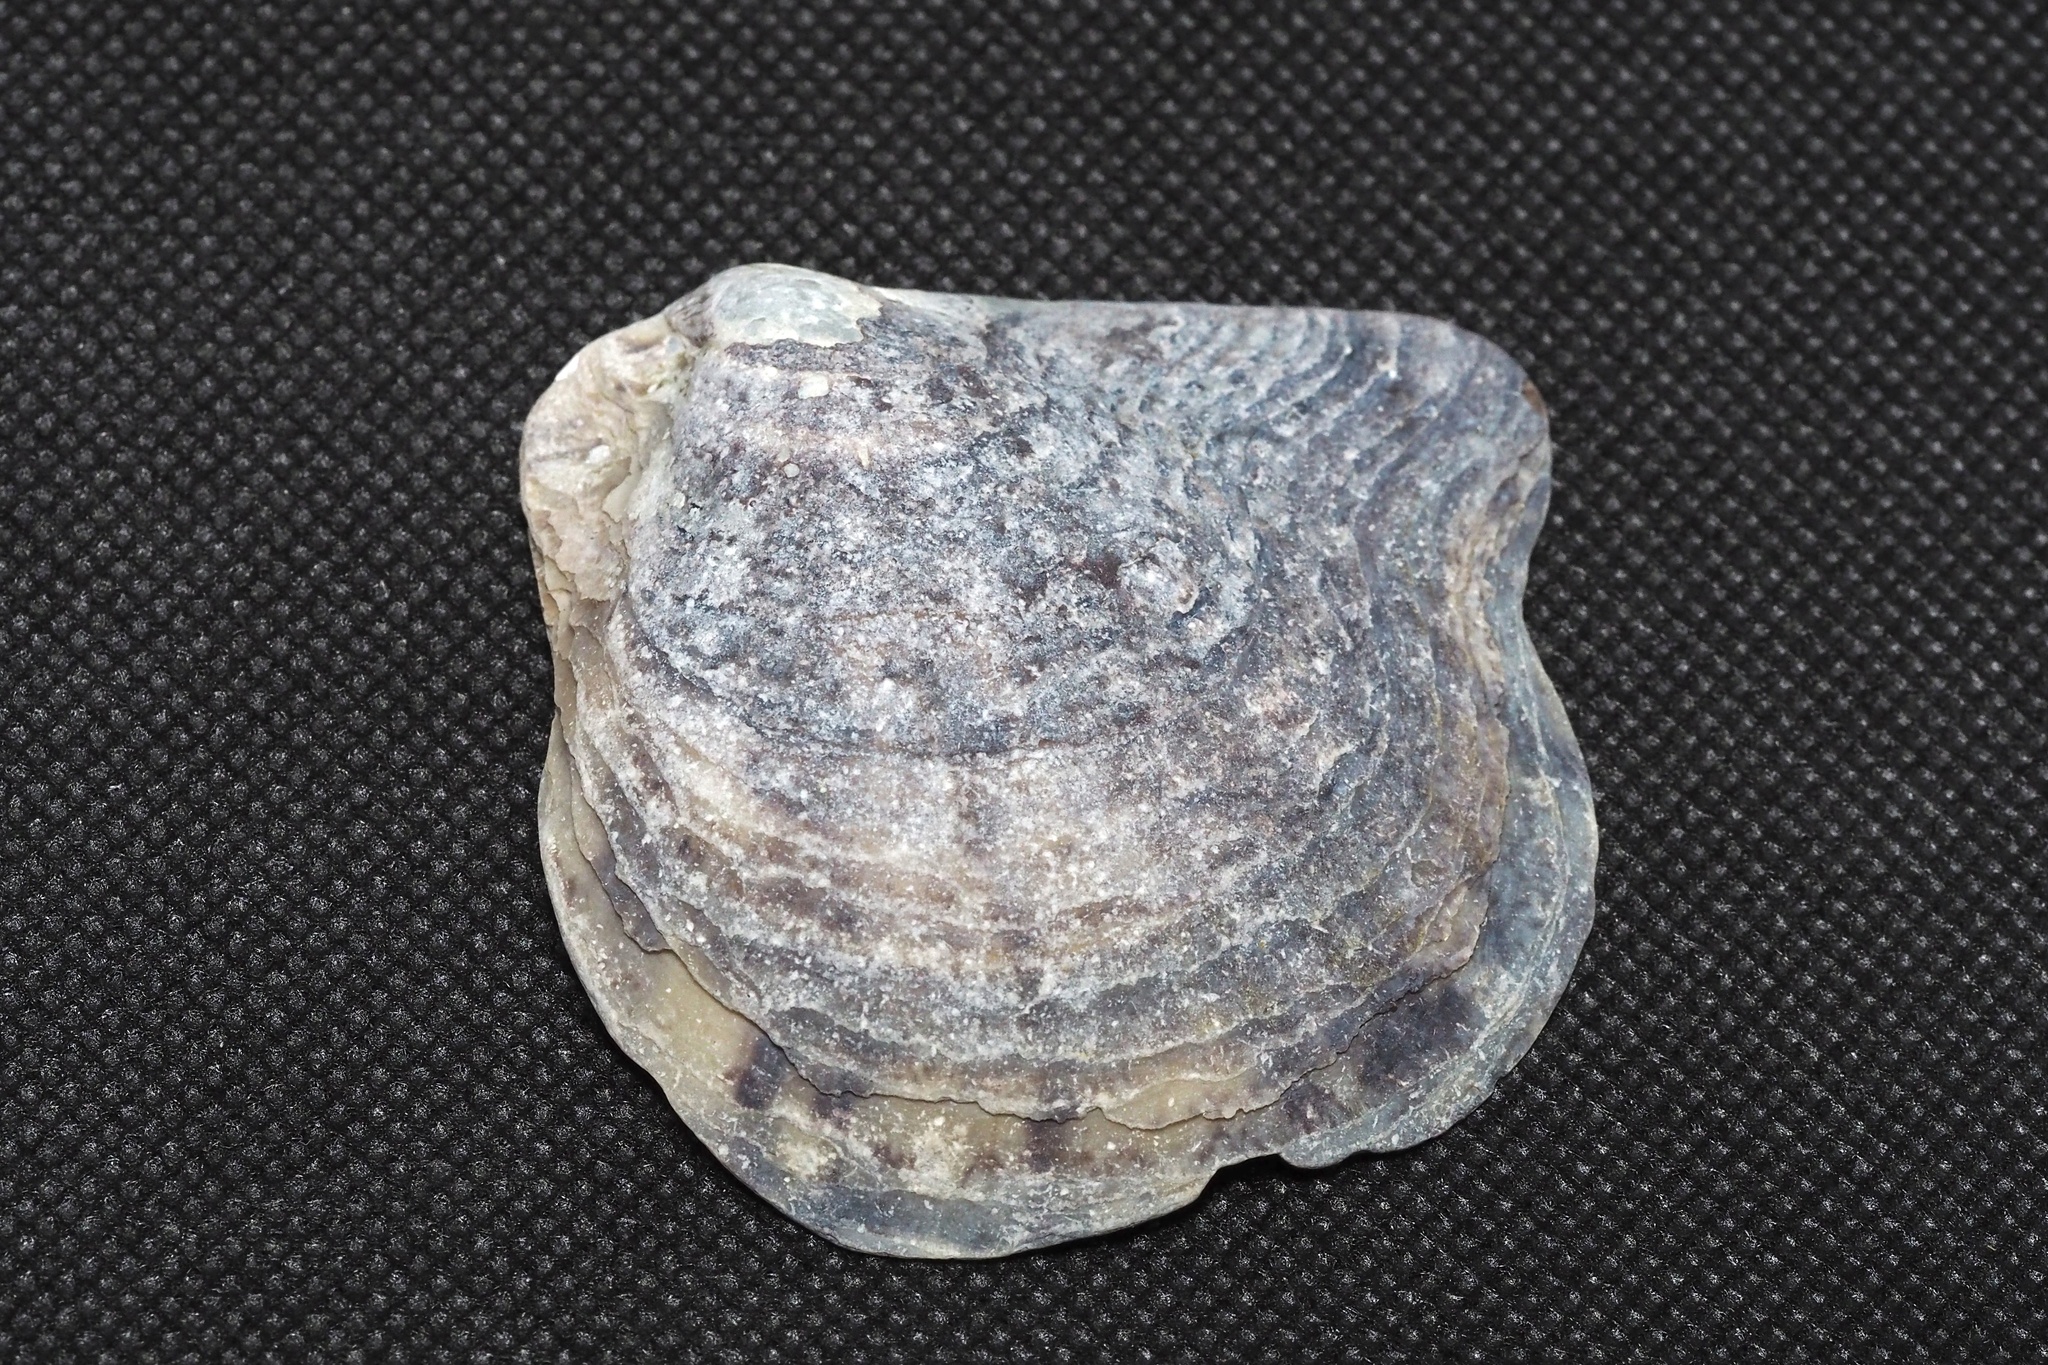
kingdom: Animalia
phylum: Mollusca
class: Bivalvia
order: Ostreida
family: Margaritidae
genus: Pinctada
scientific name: Pinctada fucata
